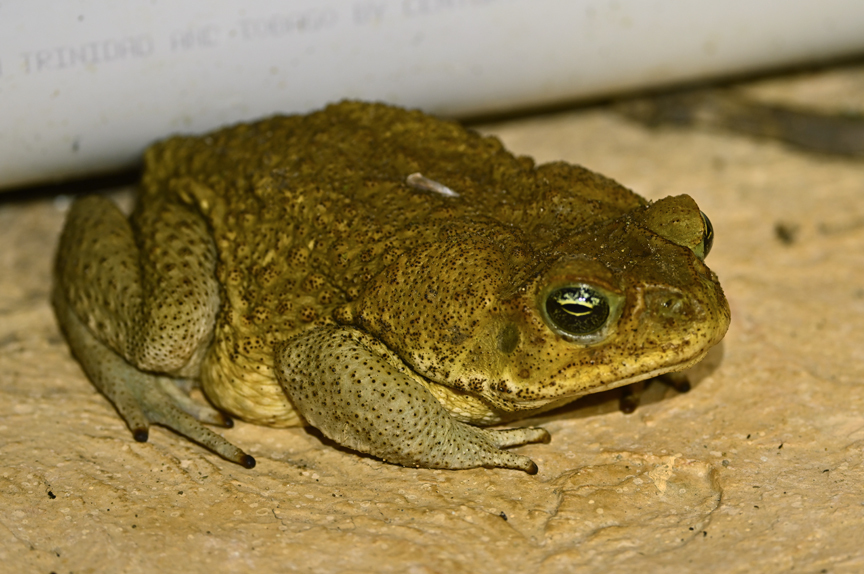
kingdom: Animalia
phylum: Chordata
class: Amphibia
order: Anura
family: Bufonidae
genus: Rhinella
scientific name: Rhinella marina
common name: Cane toad
